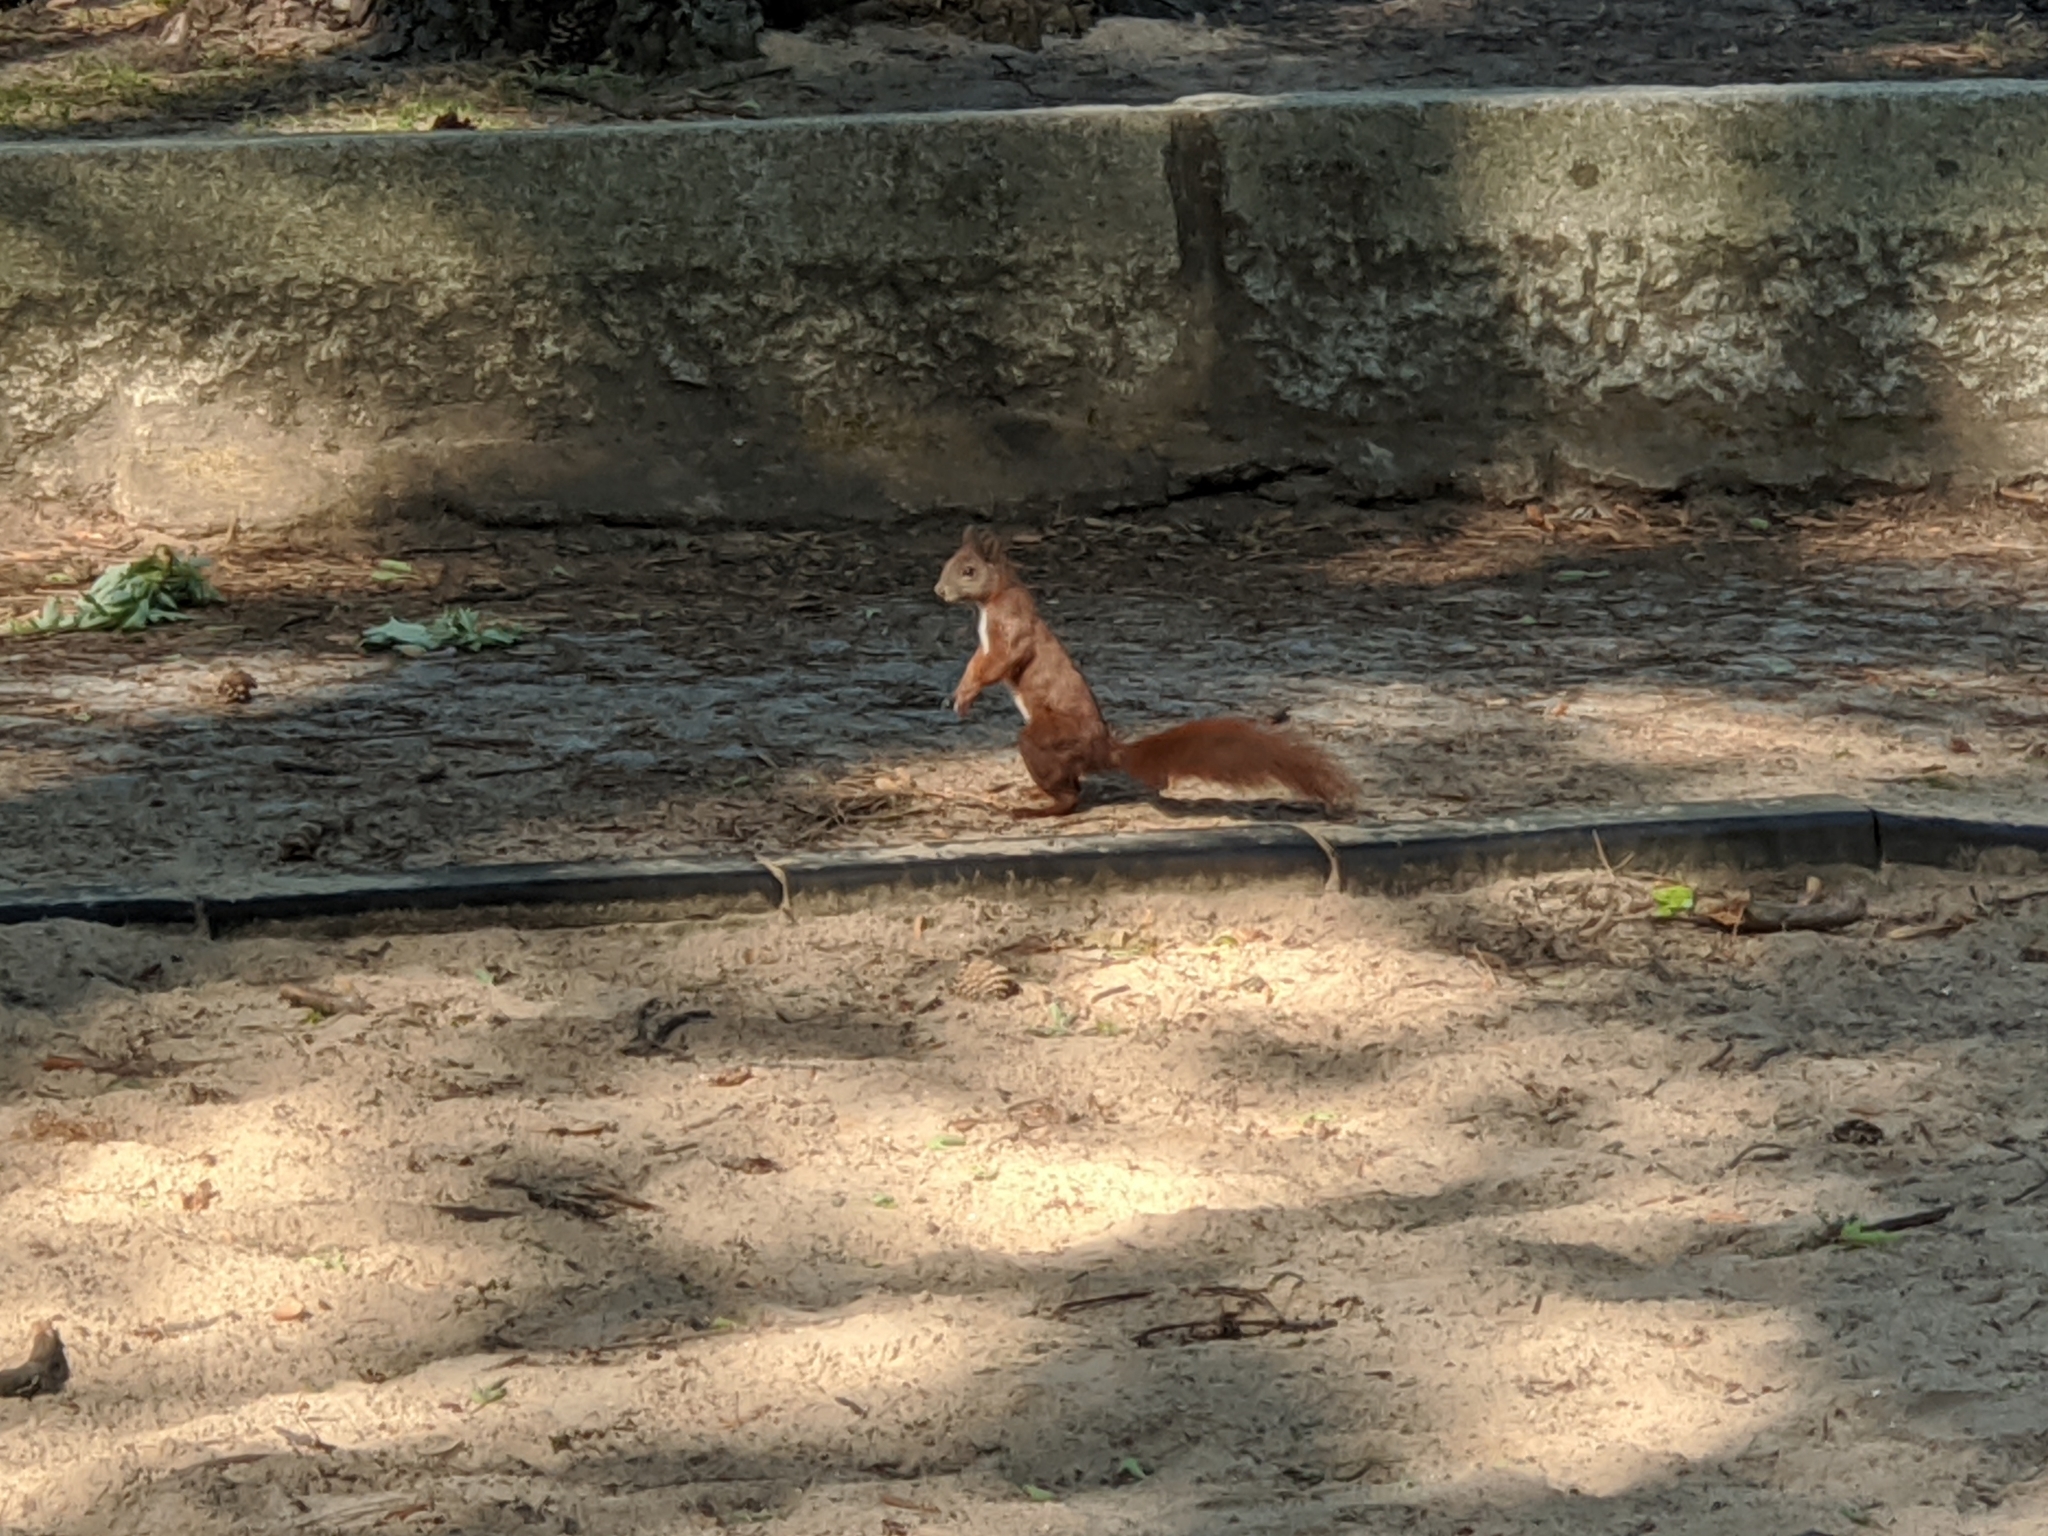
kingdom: Animalia
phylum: Chordata
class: Mammalia
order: Rodentia
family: Sciuridae
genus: Sciurus
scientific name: Sciurus vulgaris
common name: Eurasian red squirrel
